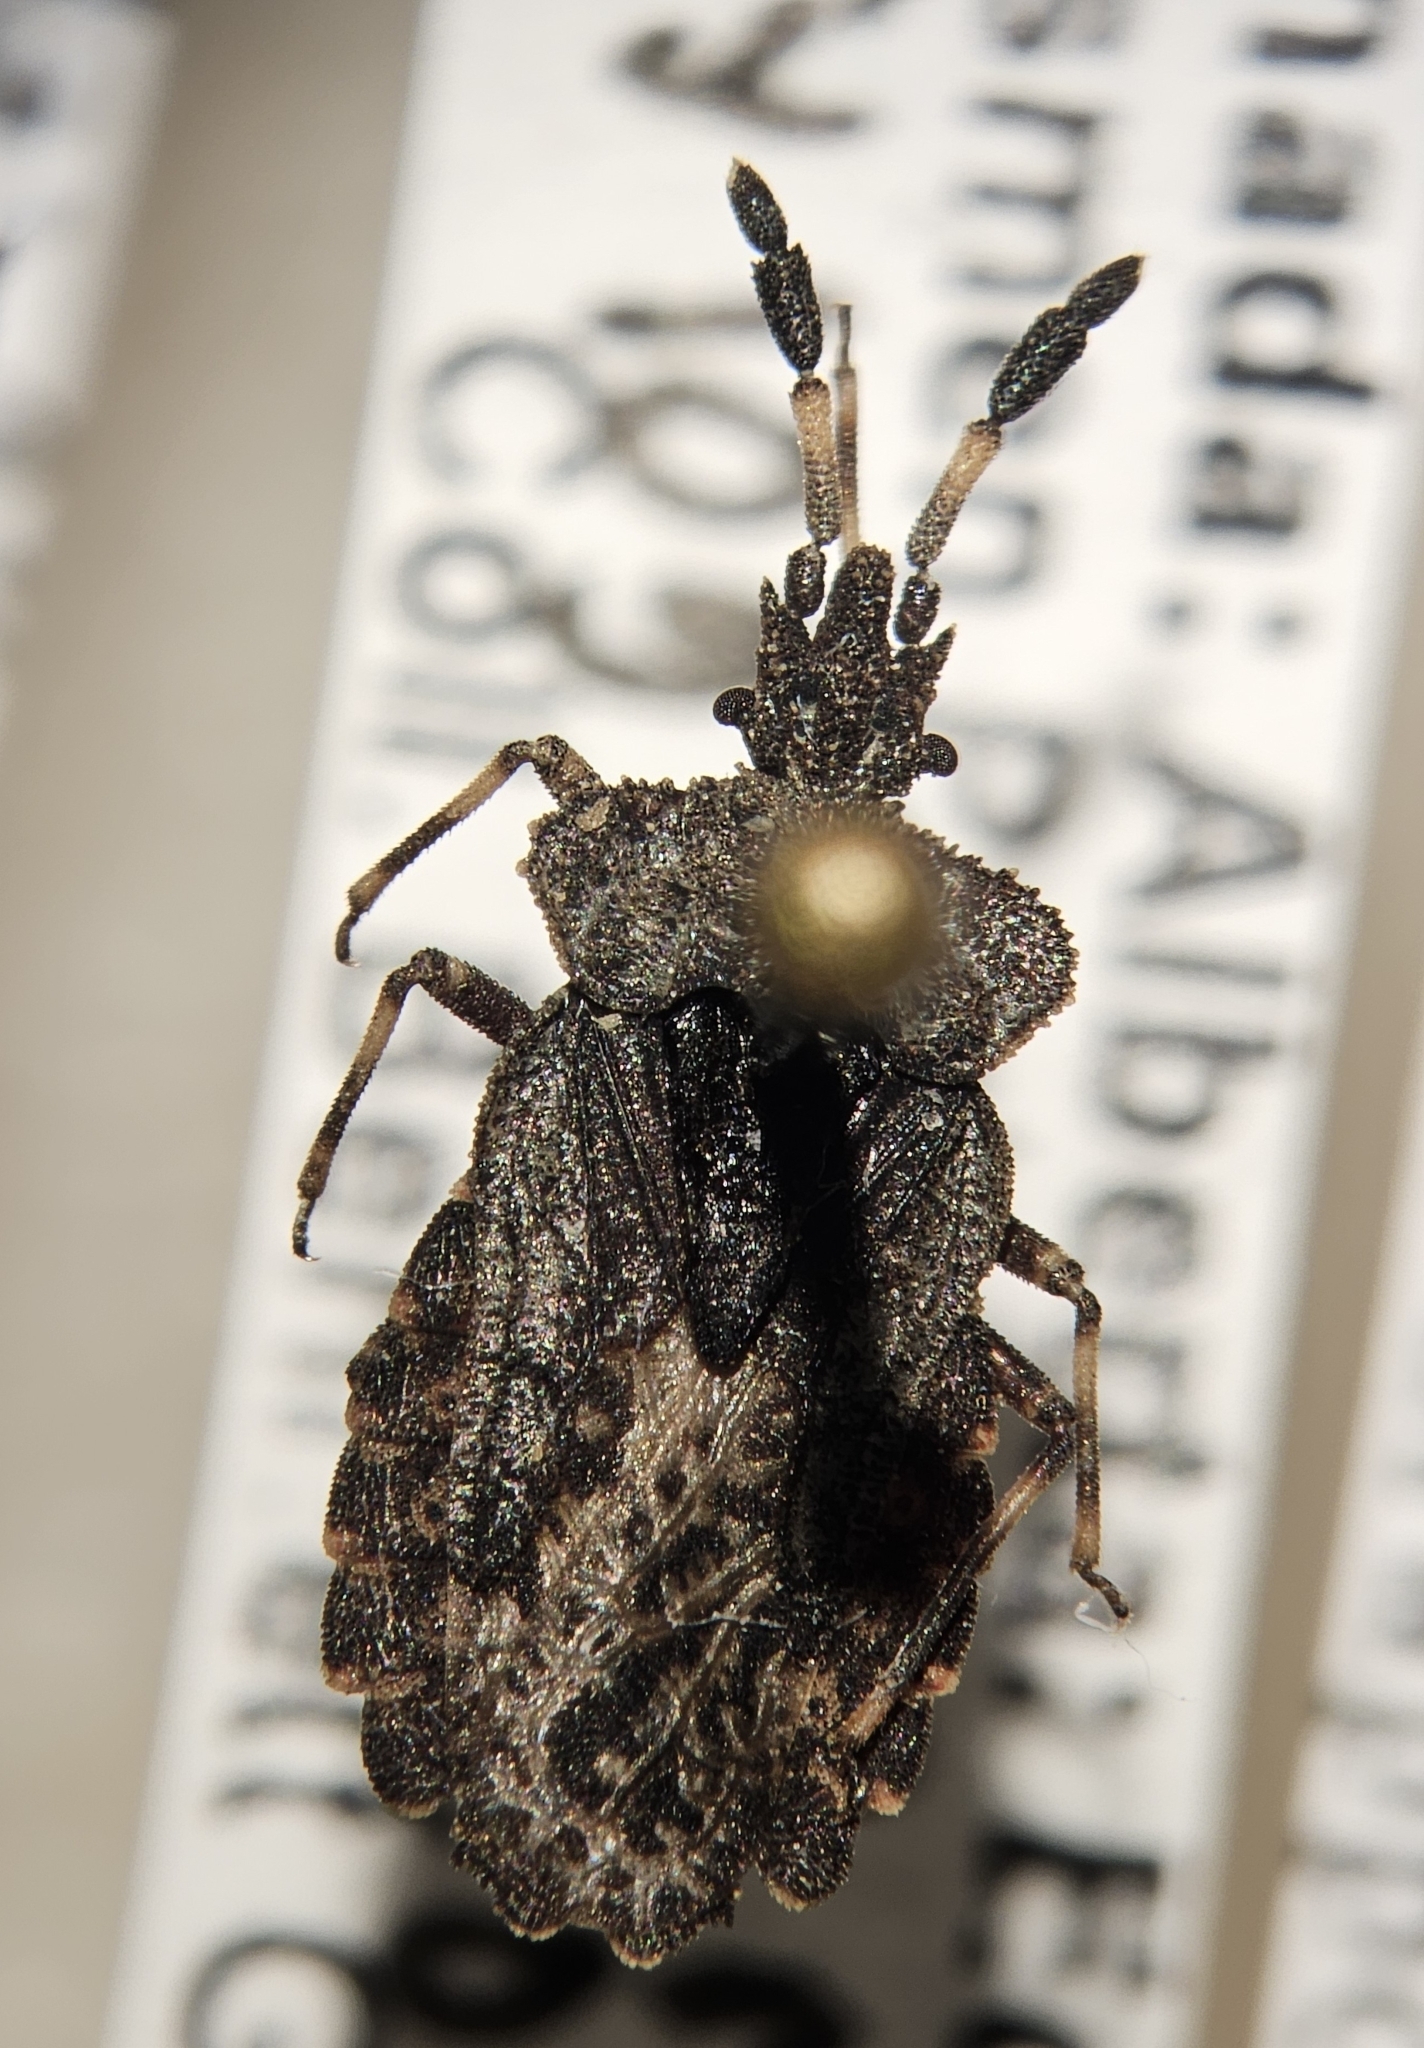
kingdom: Animalia
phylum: Arthropoda
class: Insecta
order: Hemiptera
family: Aradidae
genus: Aradus
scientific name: Aradus quadrilineatus
